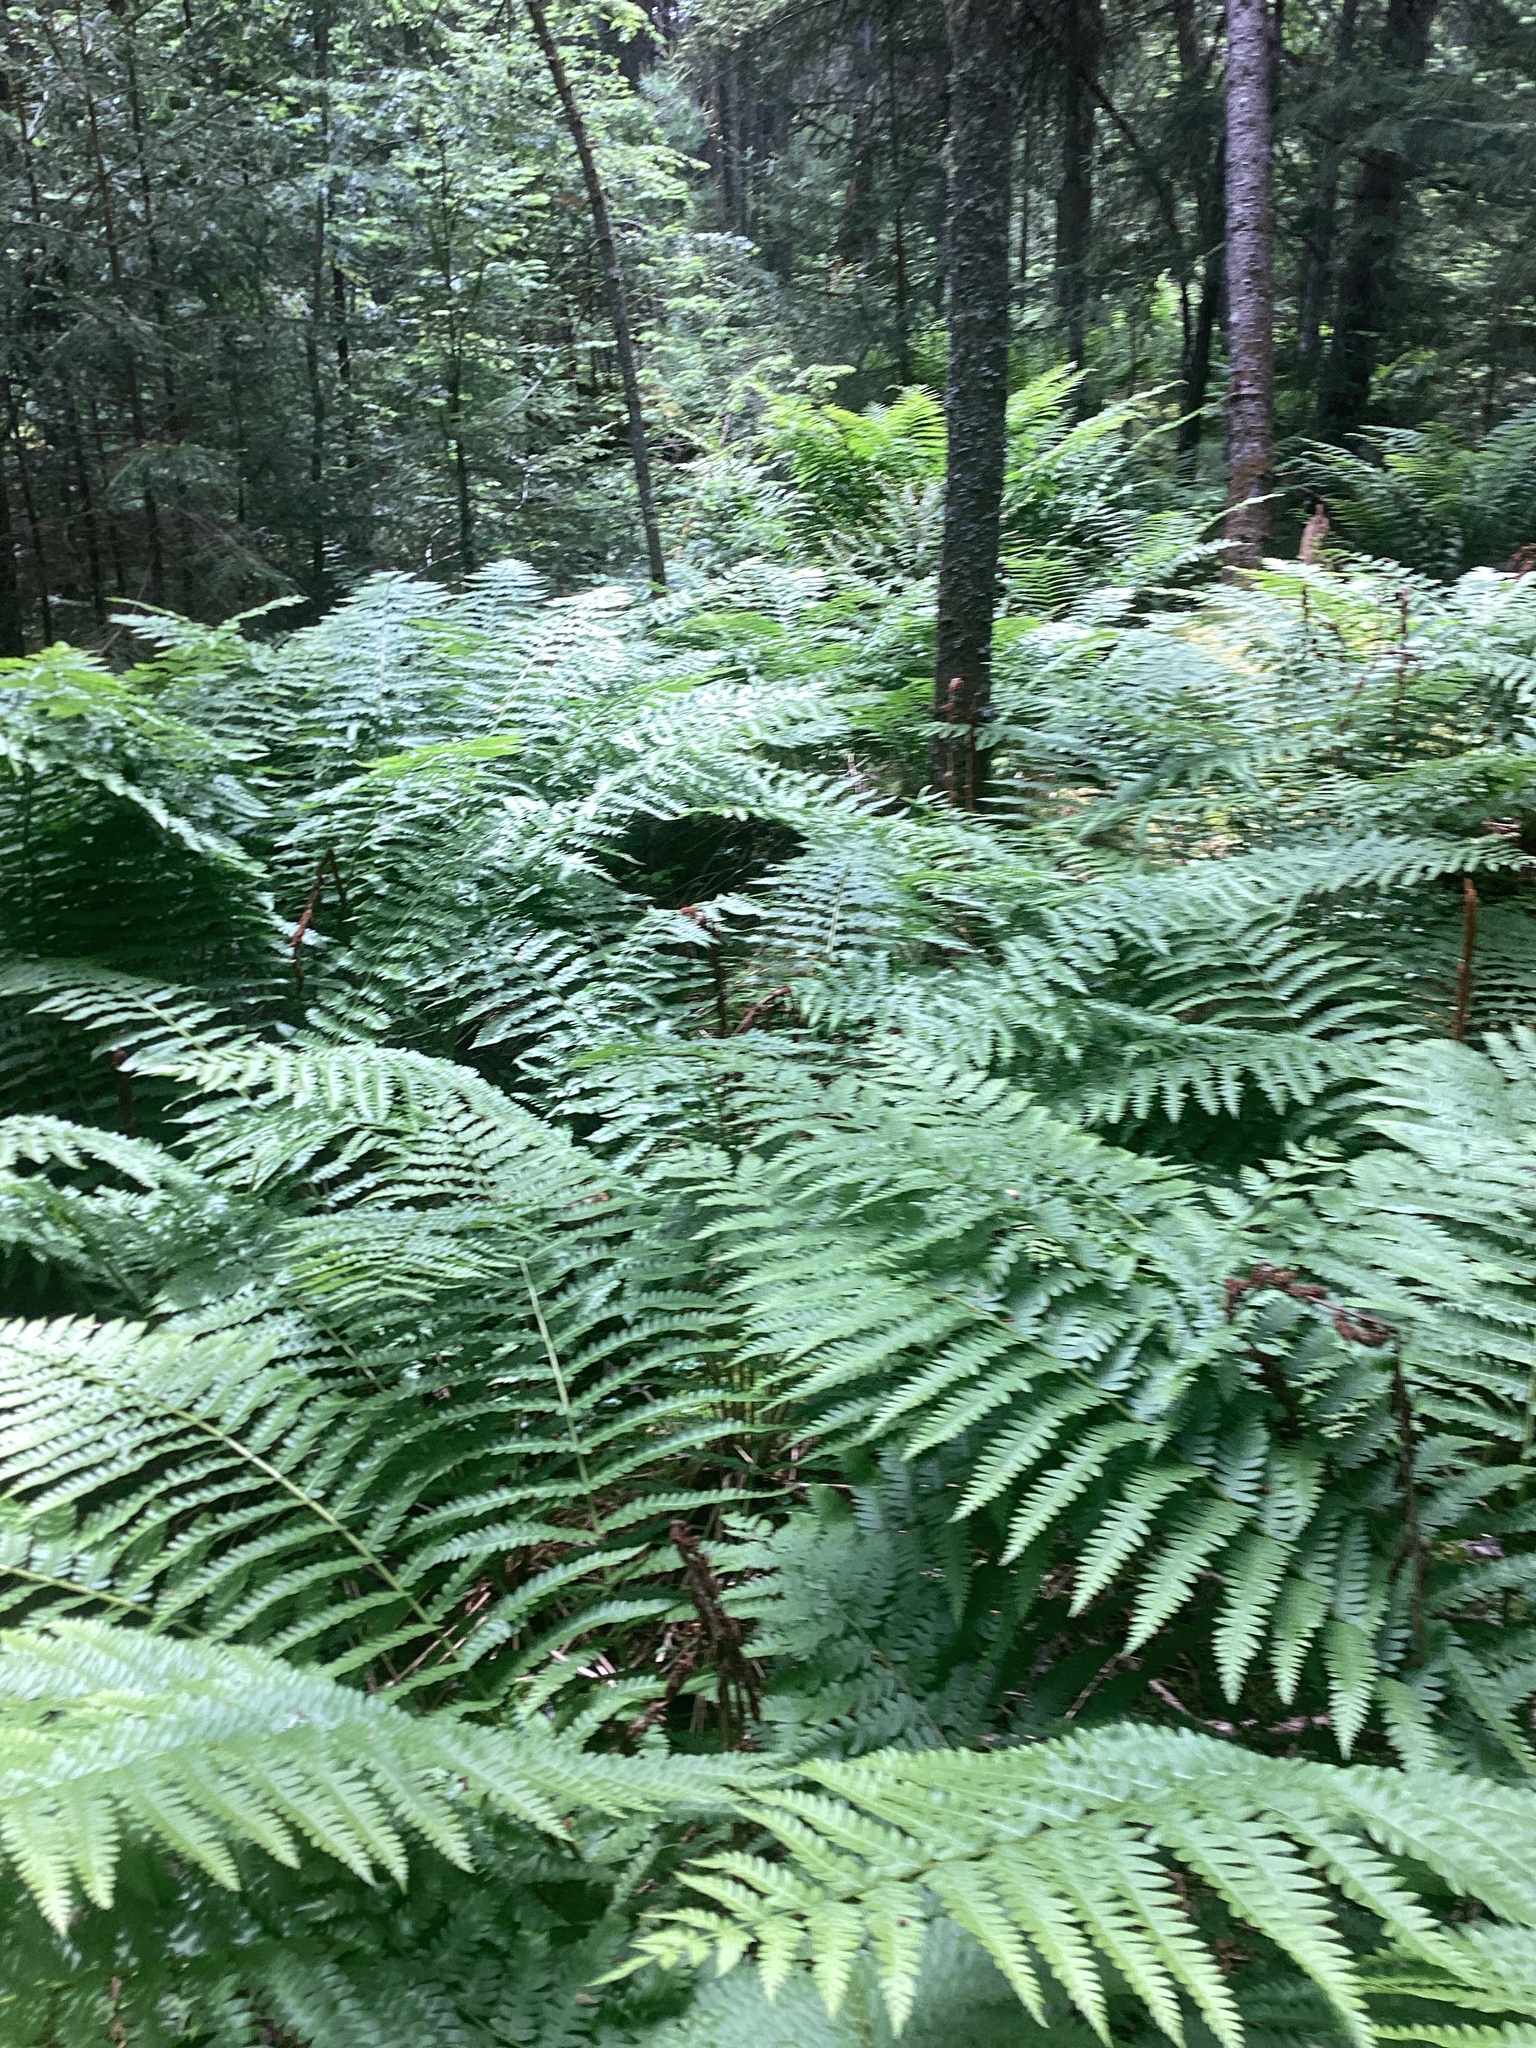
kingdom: Plantae
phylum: Tracheophyta
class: Polypodiopsida
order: Osmundales
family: Osmundaceae
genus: Osmundastrum
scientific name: Osmundastrum cinnamomeum
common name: Cinnamon fern
